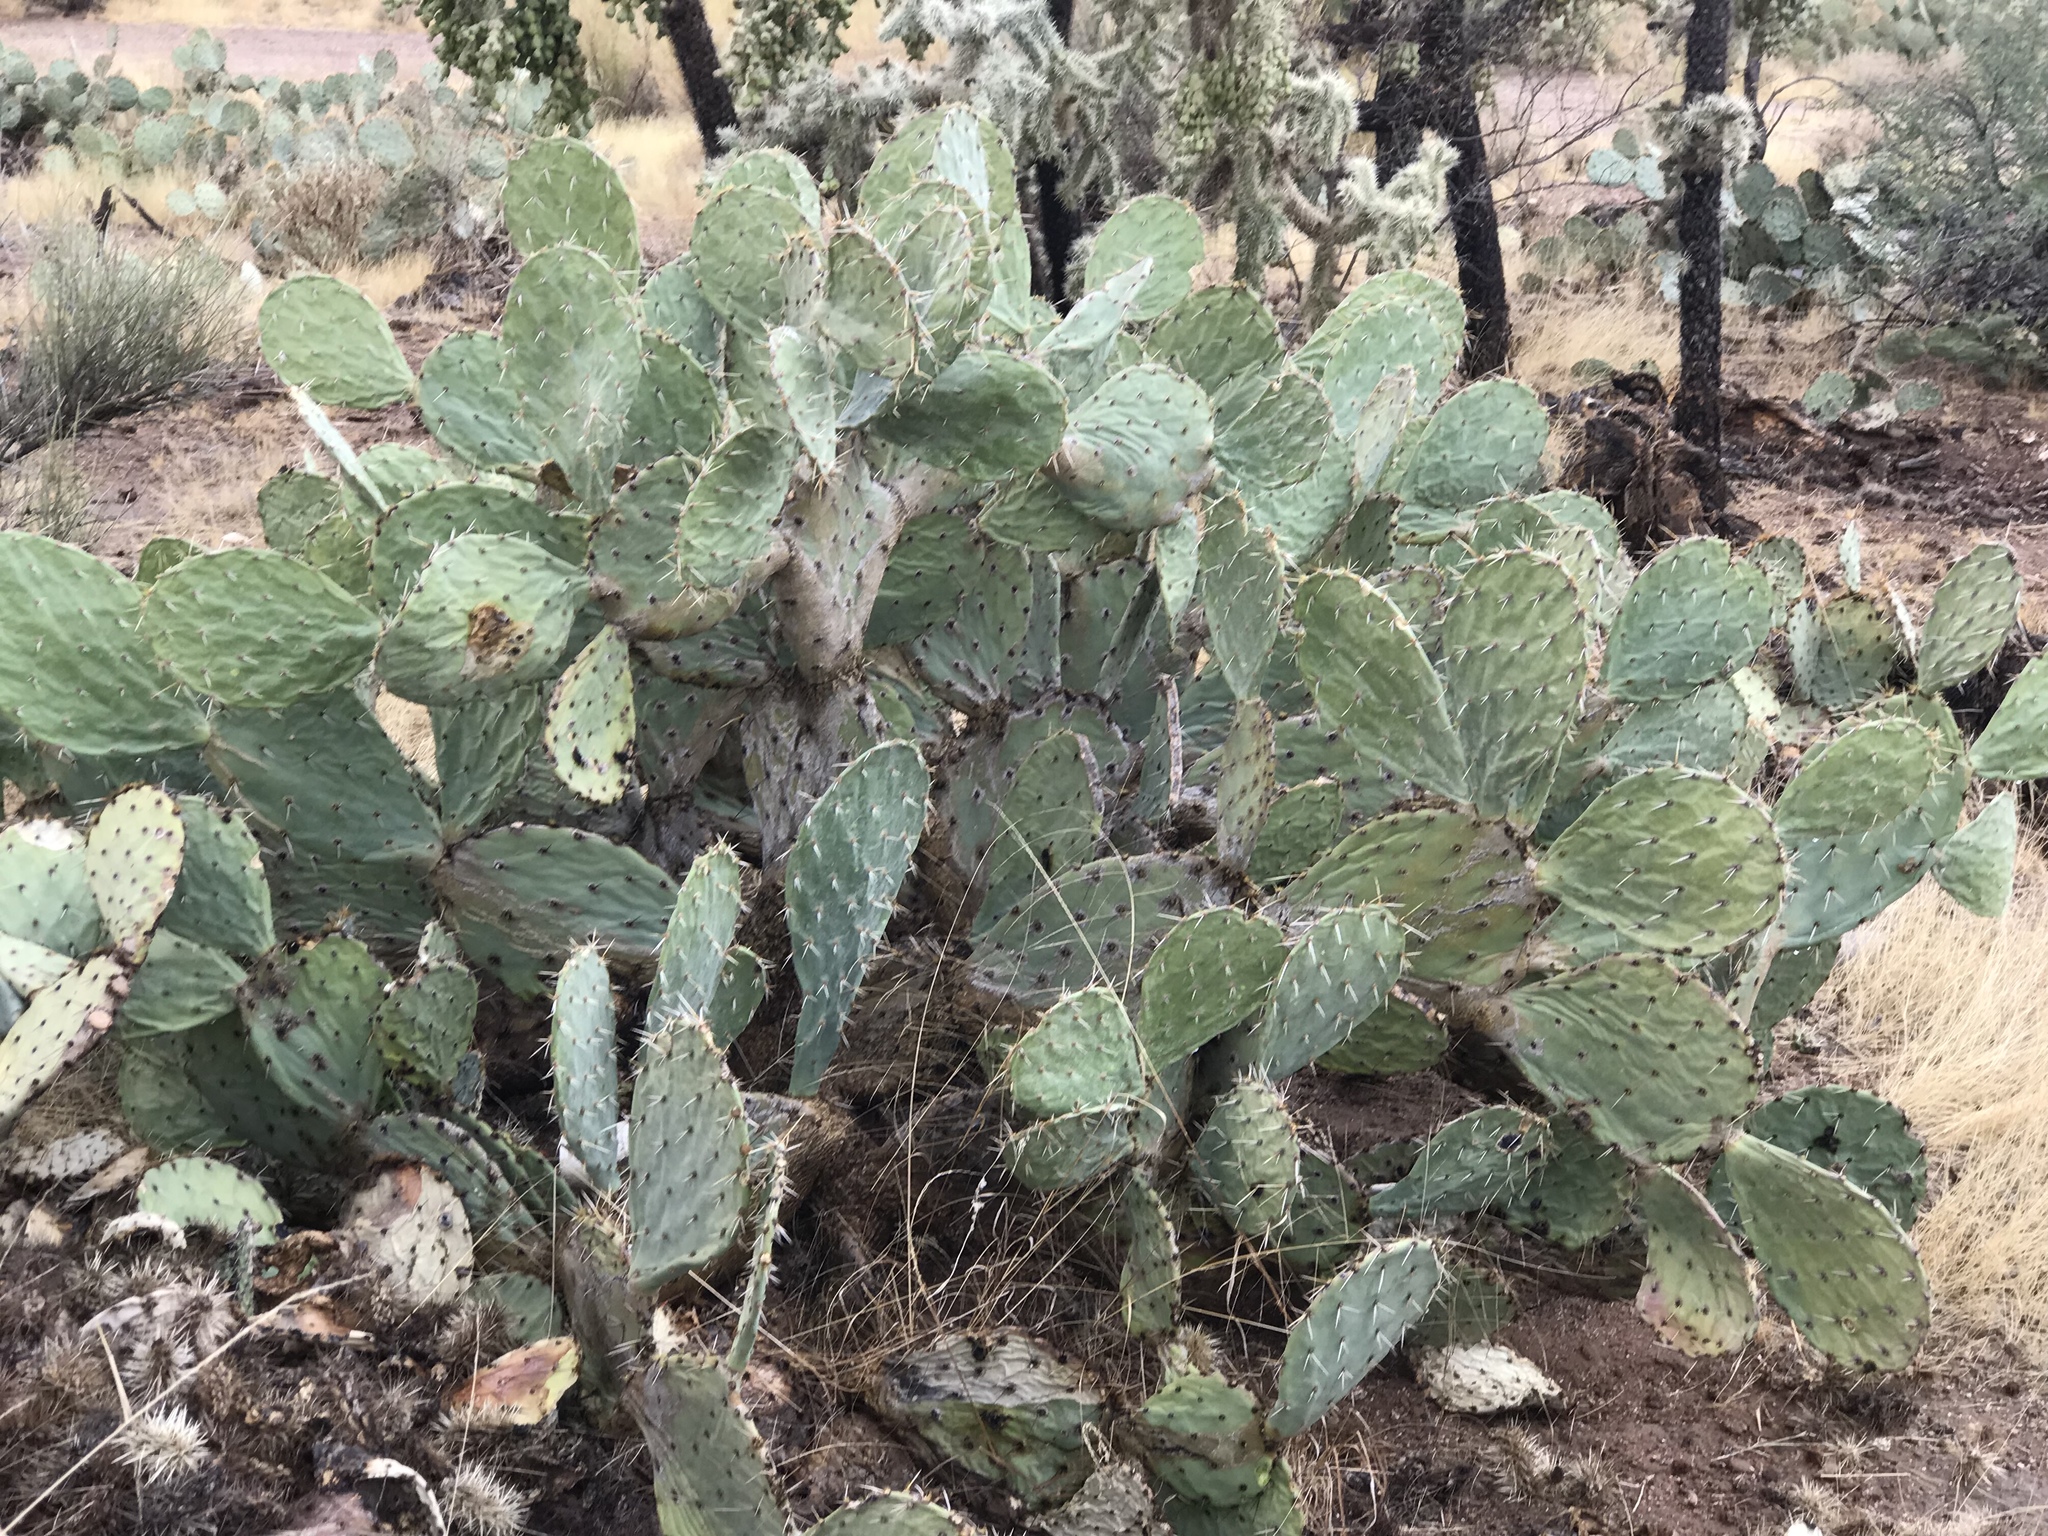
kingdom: Plantae
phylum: Tracheophyta
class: Magnoliopsida
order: Caryophyllales
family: Cactaceae
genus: Opuntia
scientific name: Opuntia engelmannii
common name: Cactus-apple
